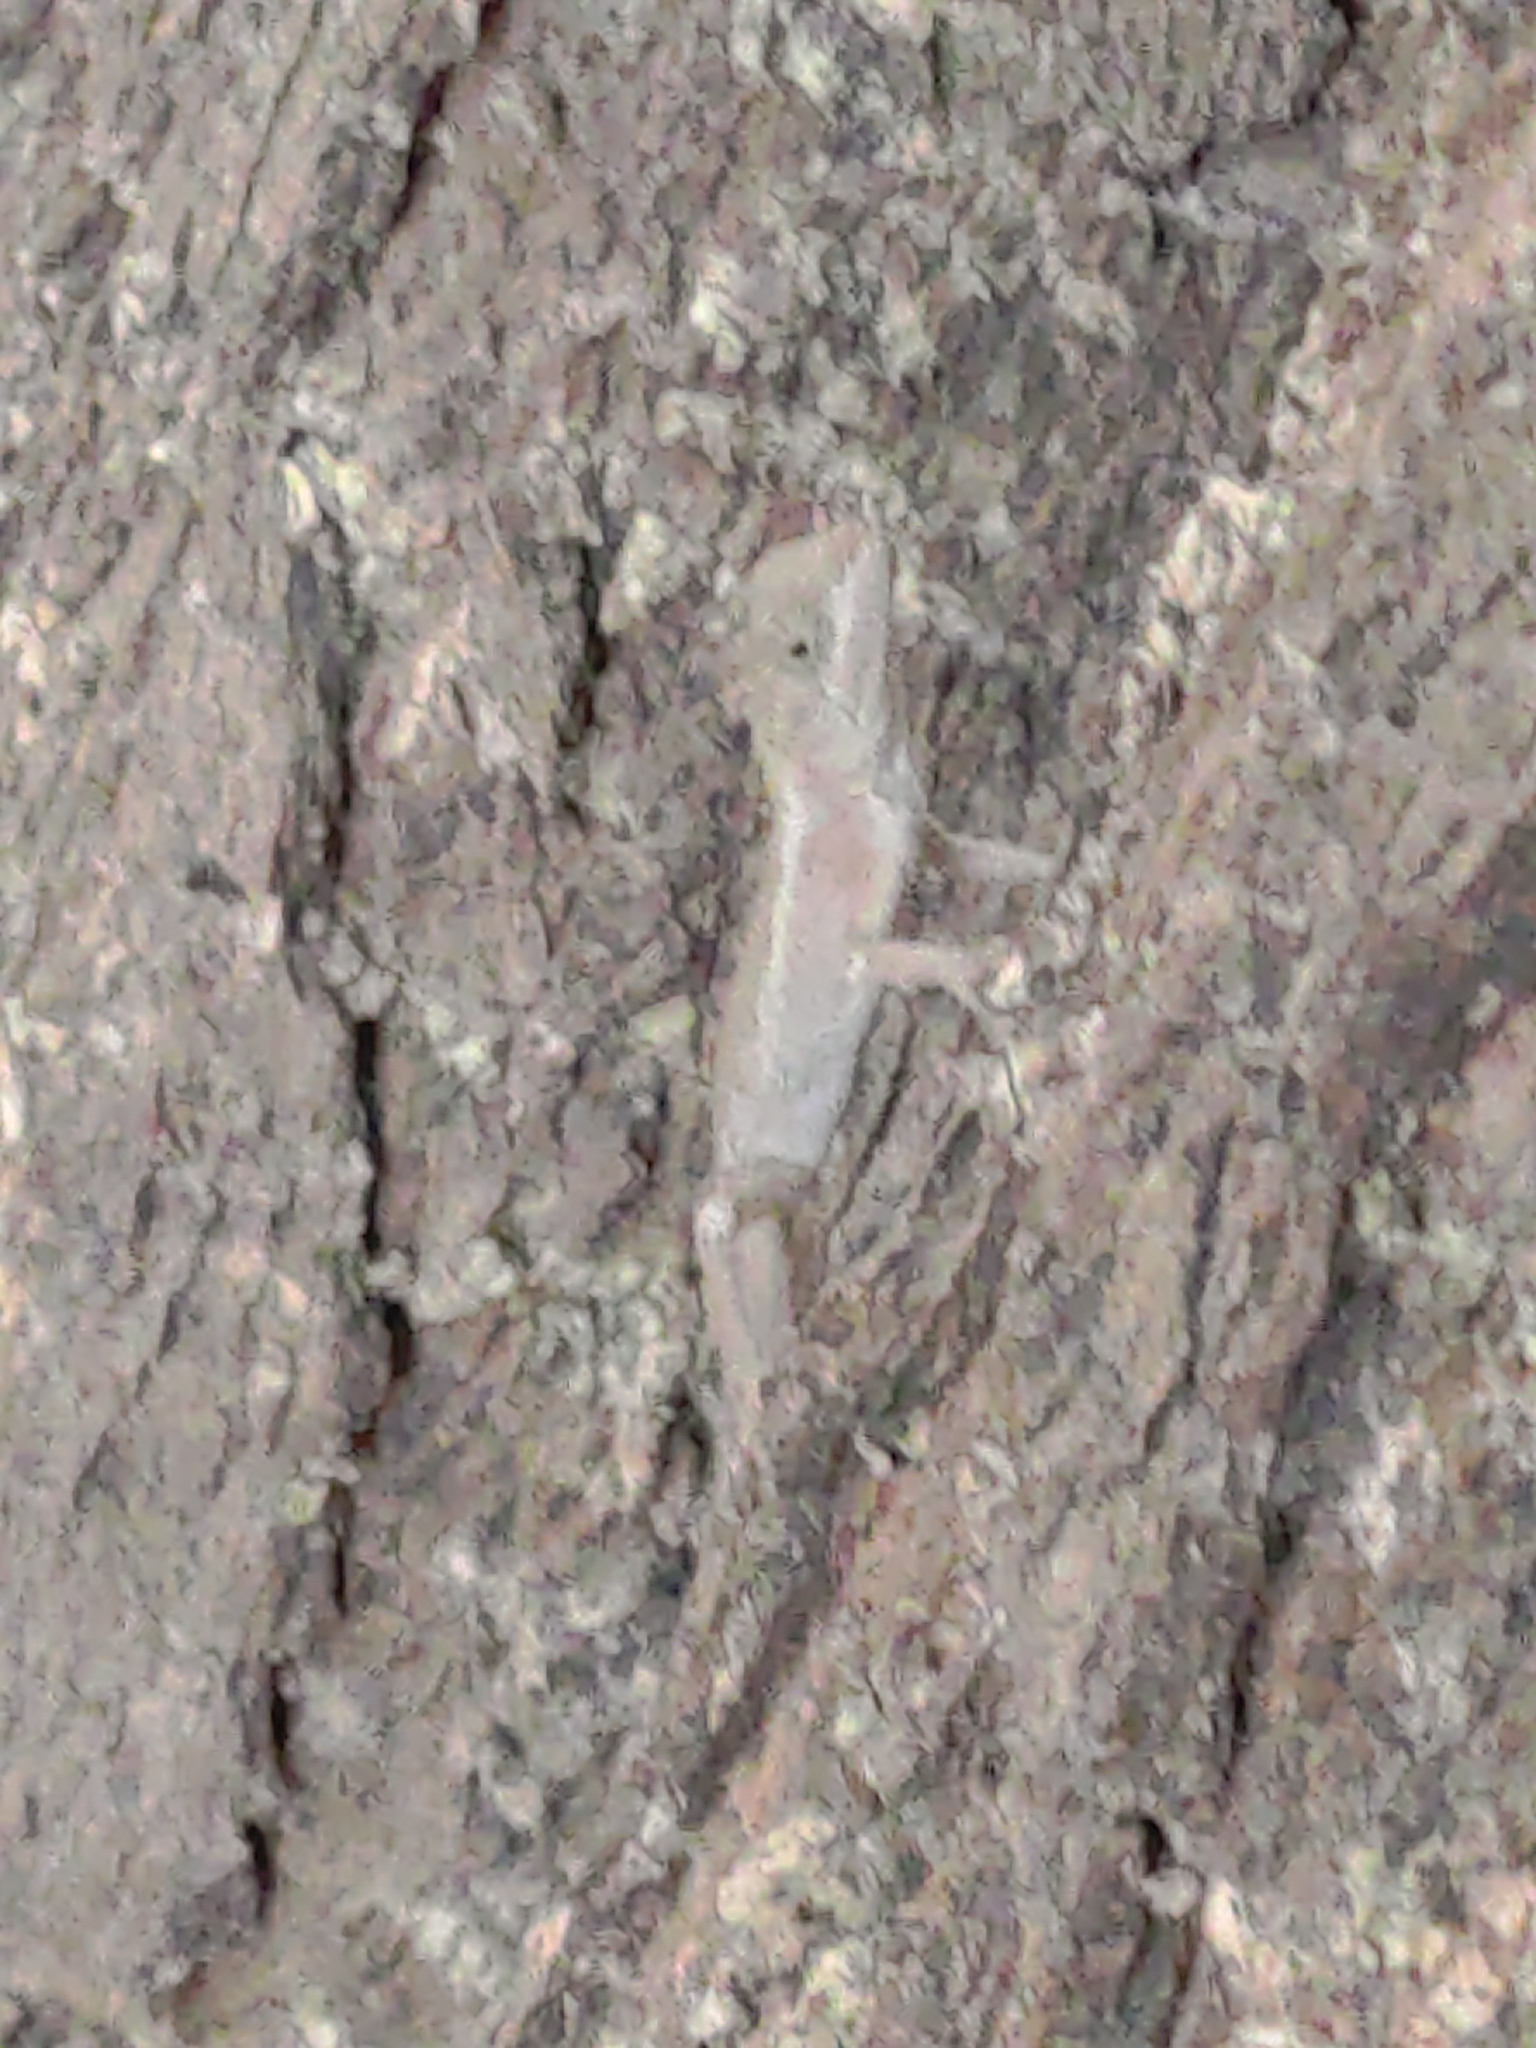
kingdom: Animalia
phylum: Chordata
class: Squamata
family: Agamidae
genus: Diploderma
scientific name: Diploderma swinhonis
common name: Taiwan japalure
